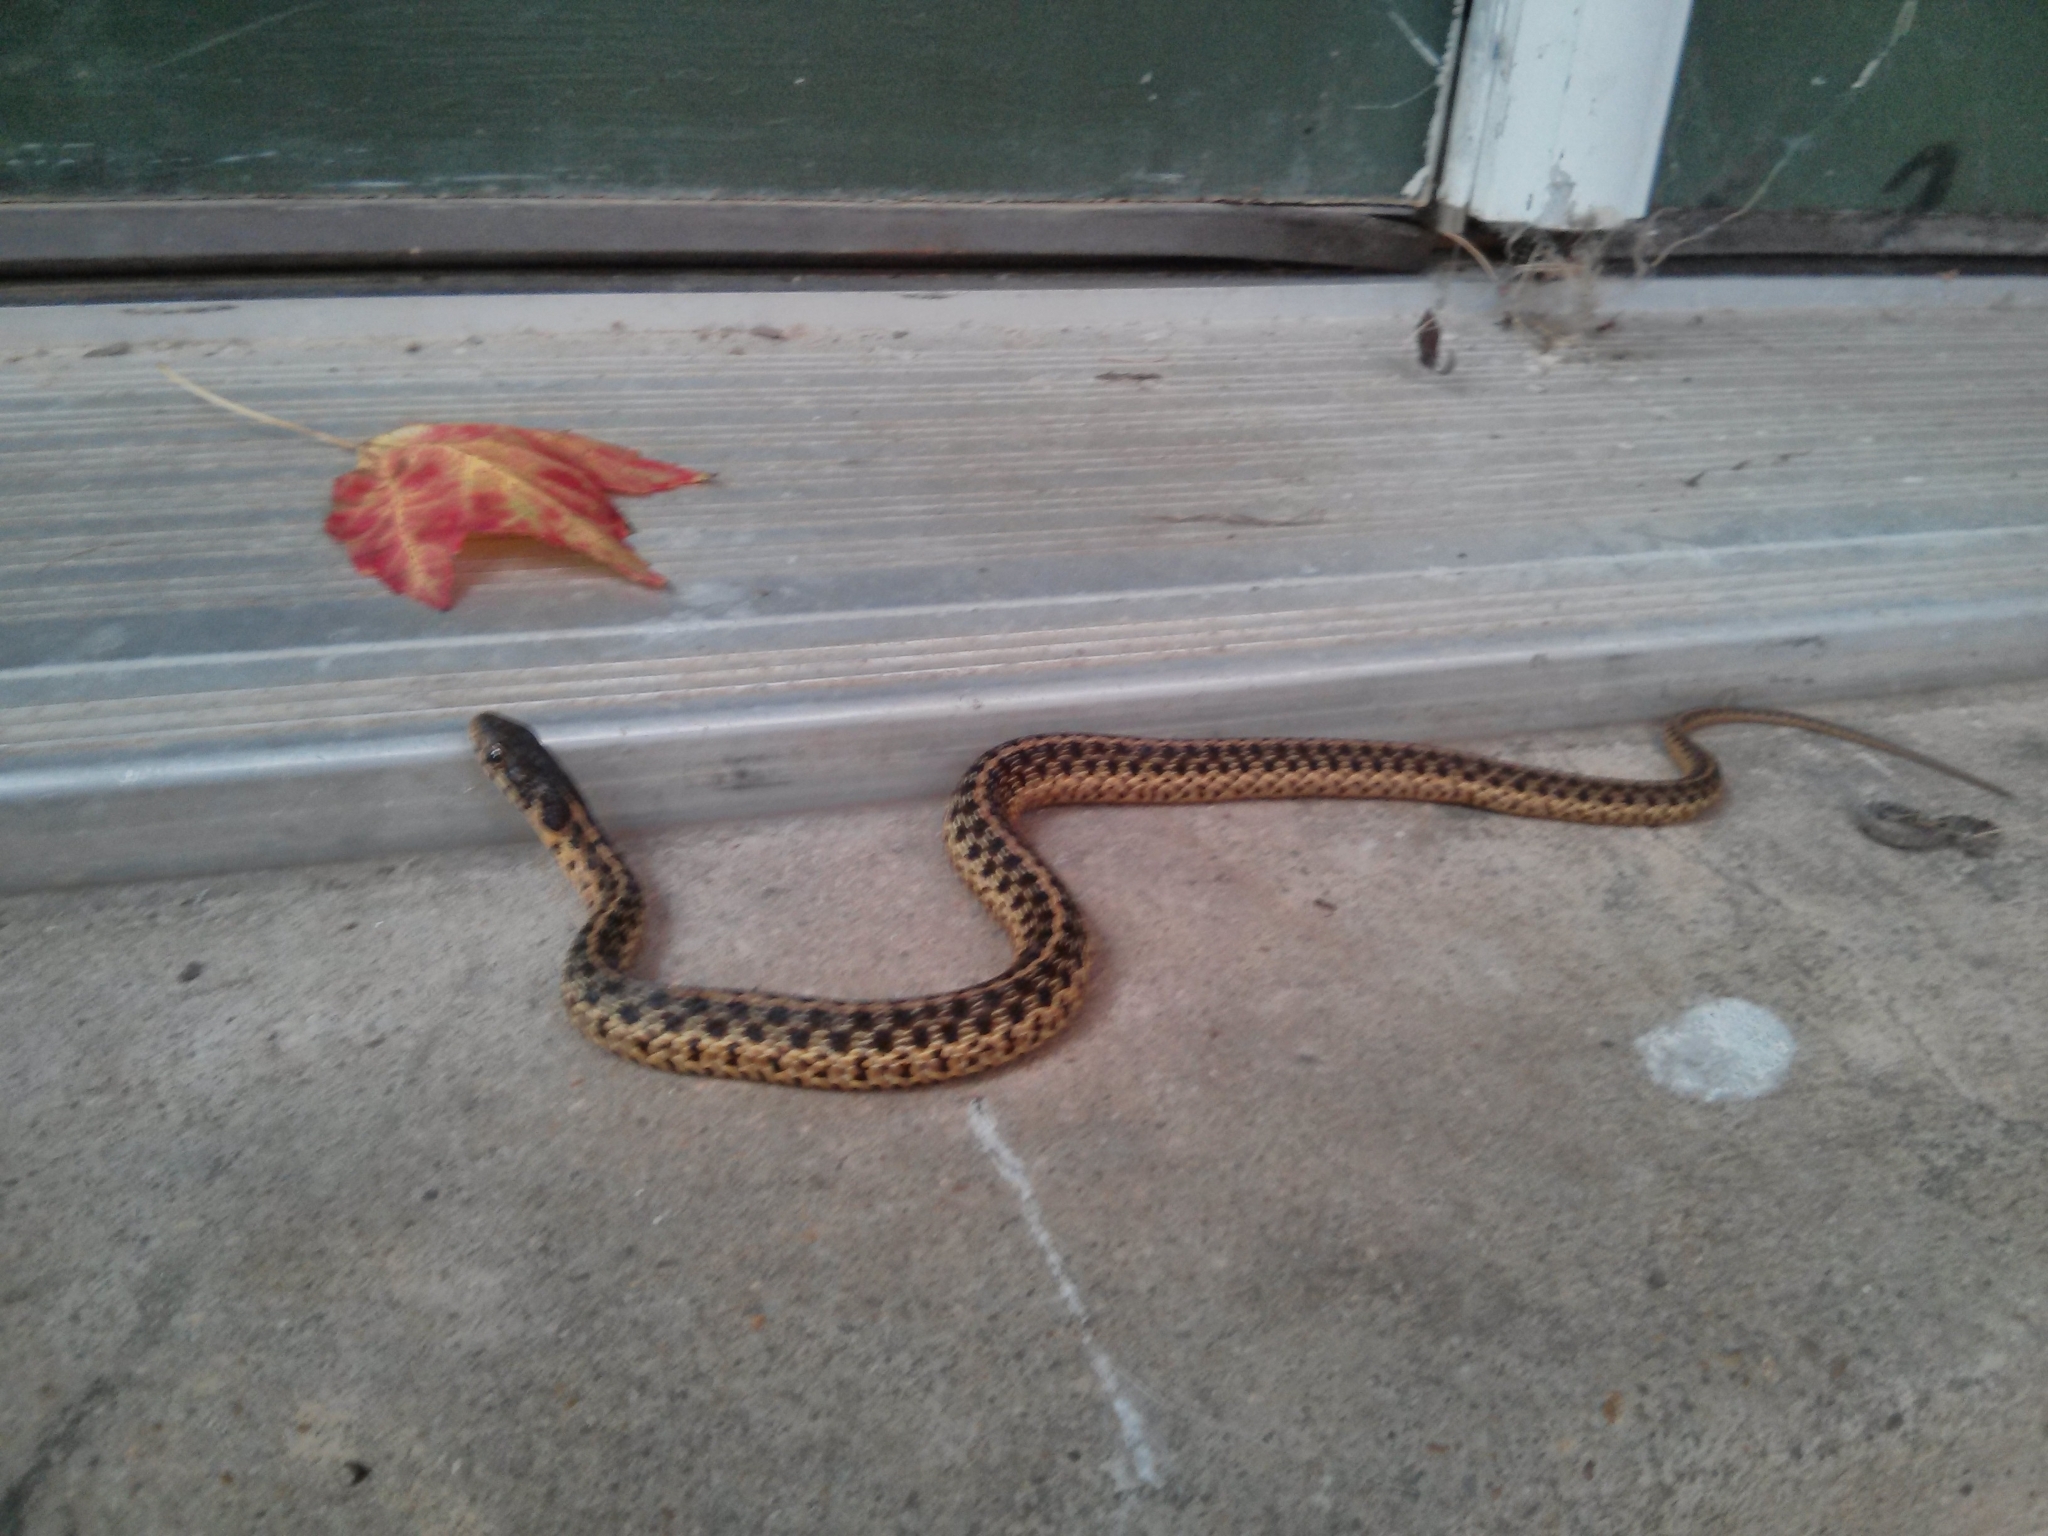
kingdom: Animalia
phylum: Chordata
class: Squamata
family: Colubridae
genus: Thamnophis
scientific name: Thamnophis sirtalis
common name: Common garter snake
